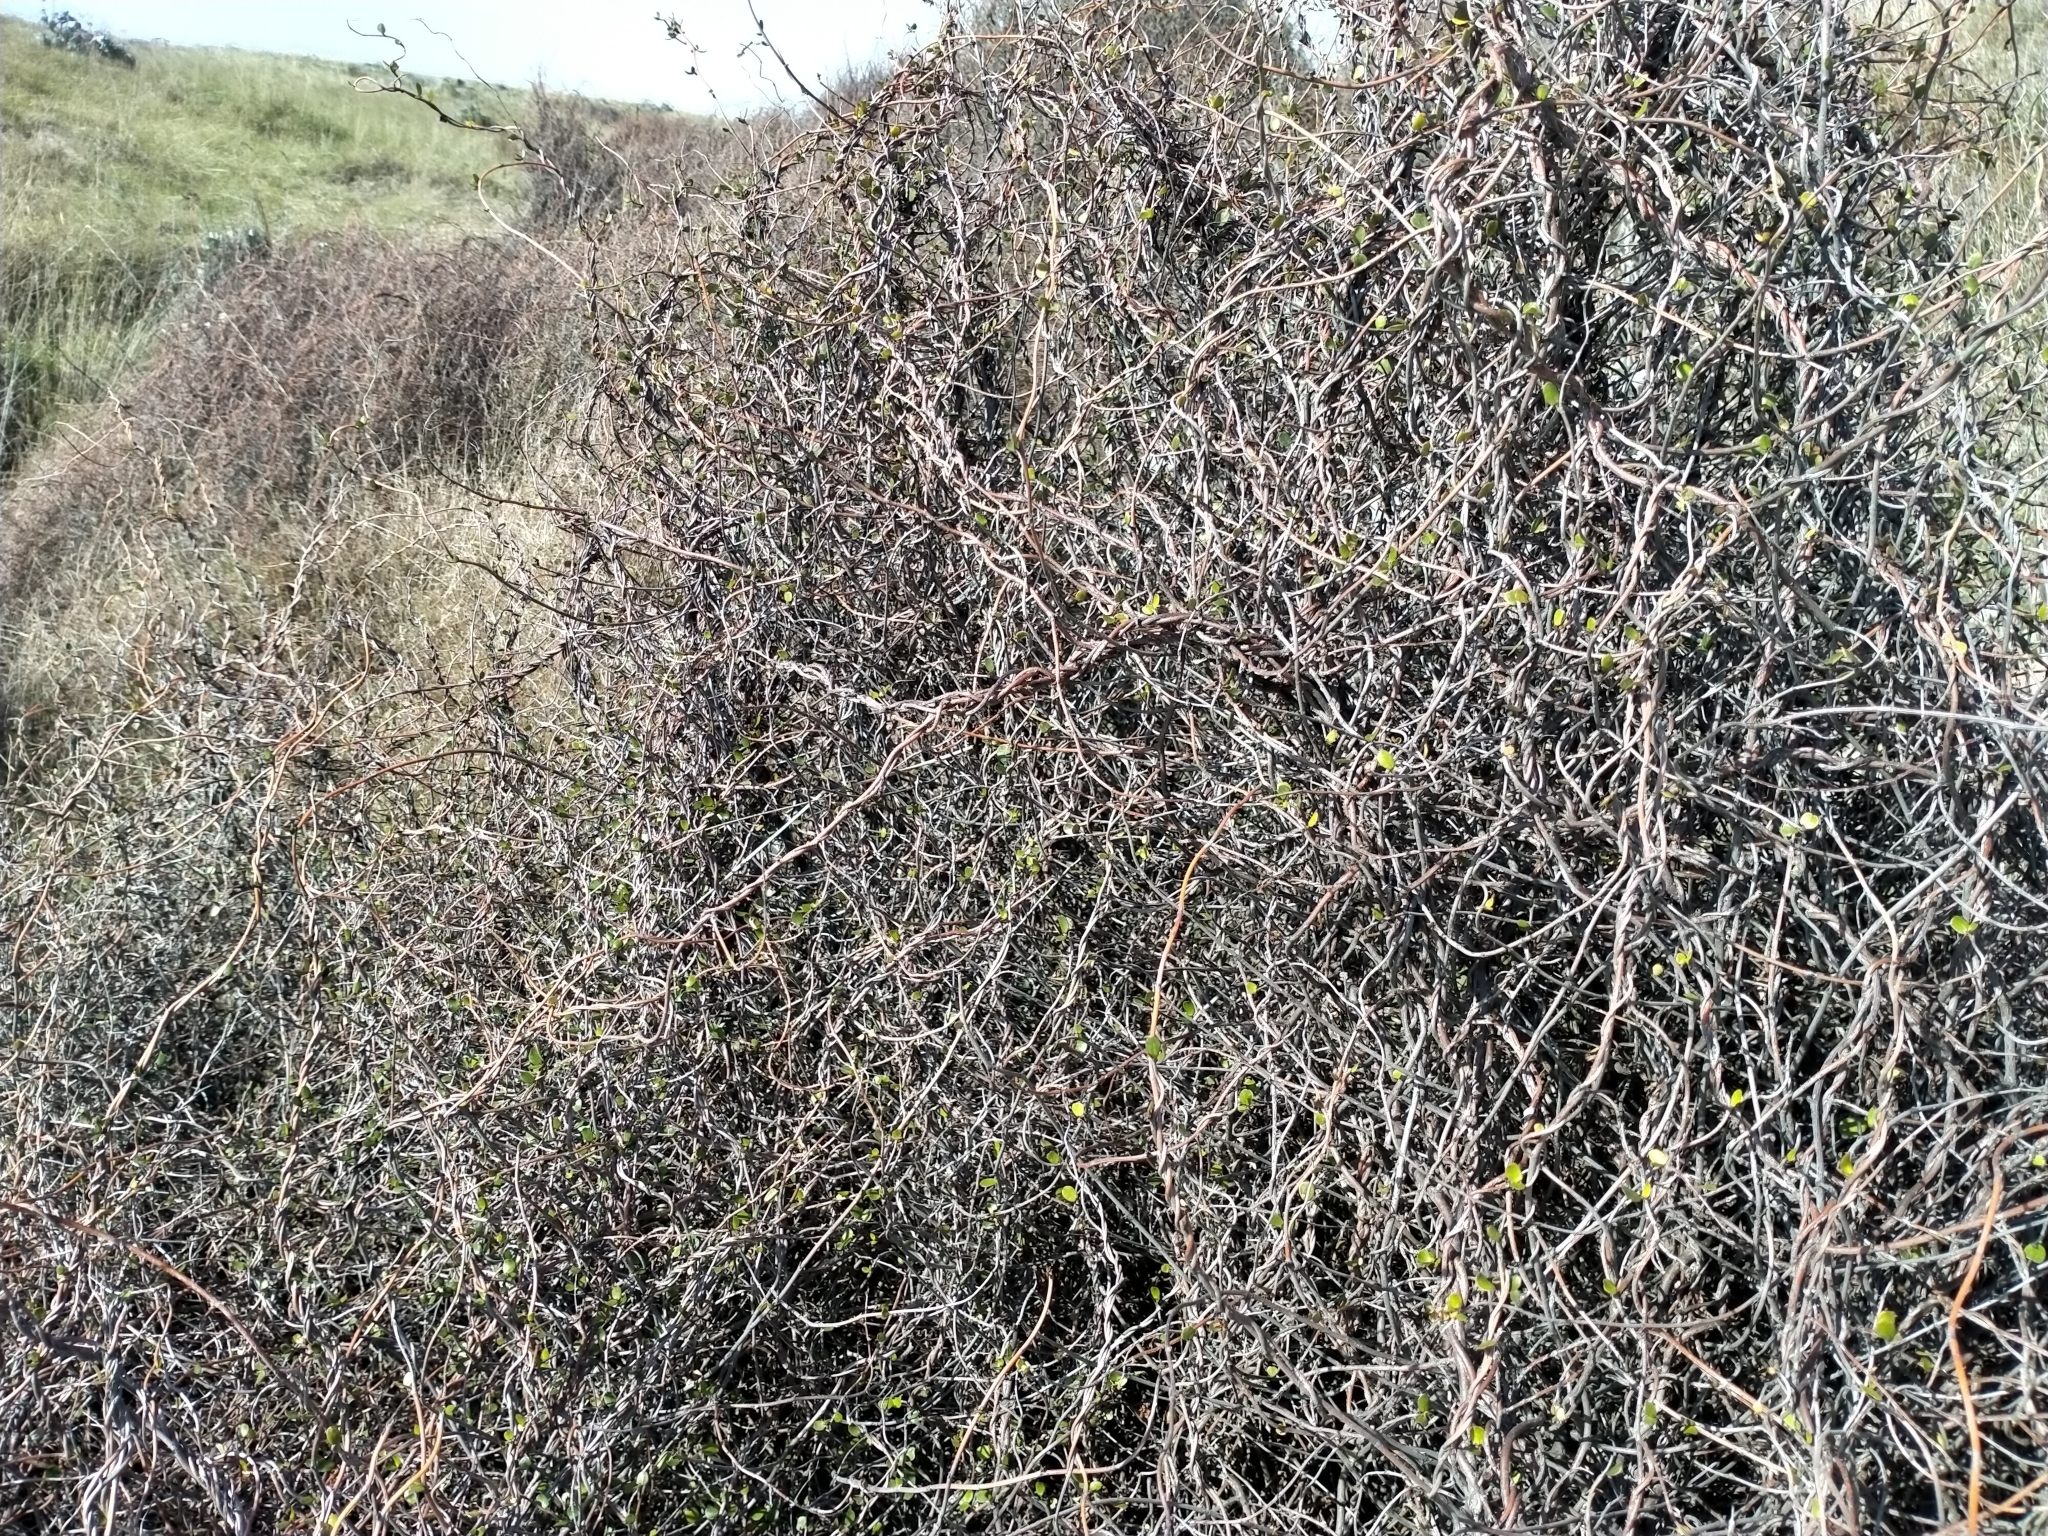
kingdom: Plantae
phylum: Tracheophyta
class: Magnoliopsida
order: Caryophyllales
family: Polygonaceae
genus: Muehlenbeckia
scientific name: Muehlenbeckia complexa
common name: Wireplant
